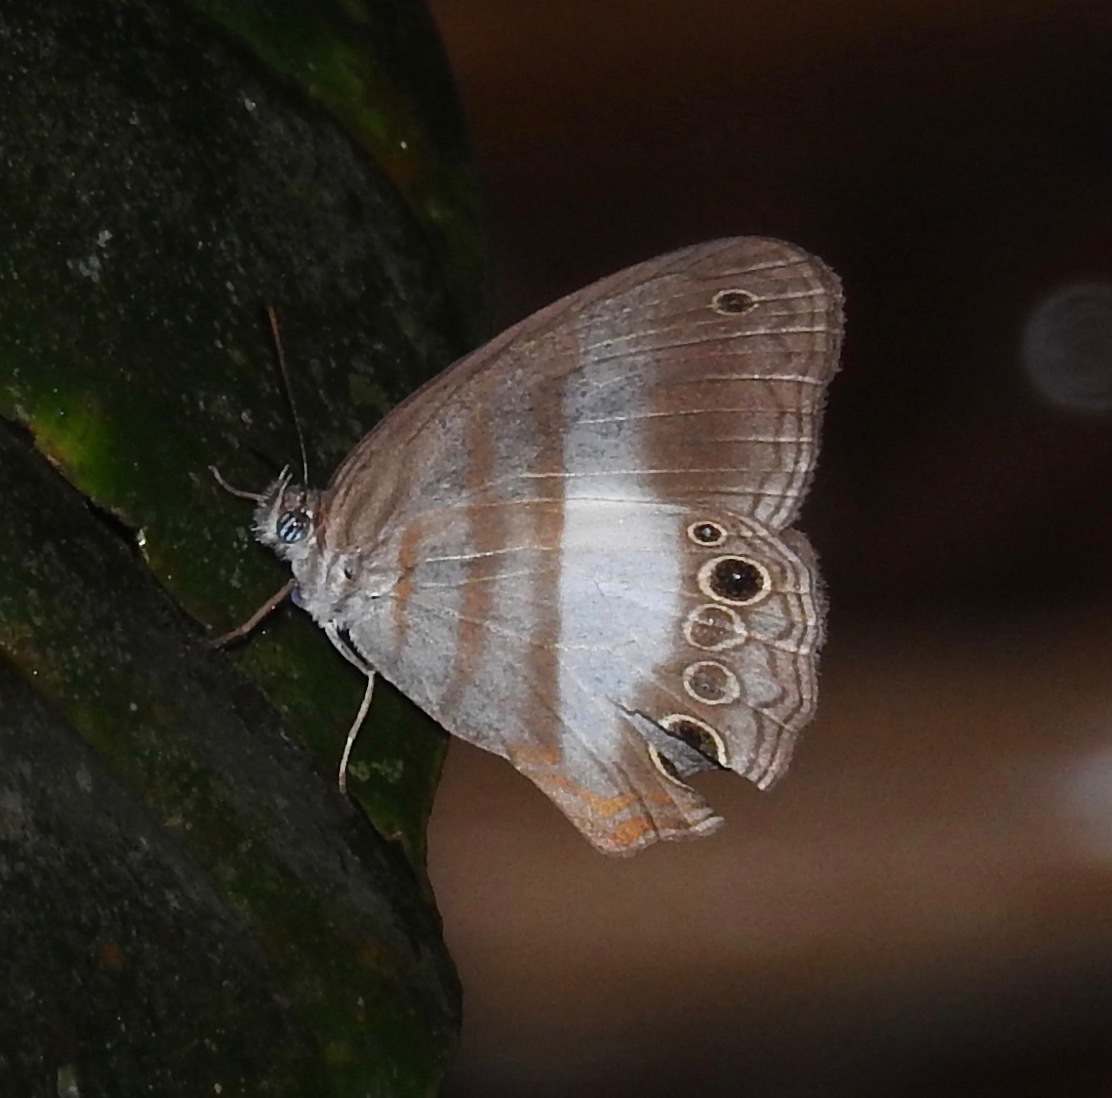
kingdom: Animalia
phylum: Arthropoda
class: Insecta
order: Lepidoptera
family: Nymphalidae
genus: Pareuptychia
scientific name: Pareuptychia metaleuca
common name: White-banded satyr
